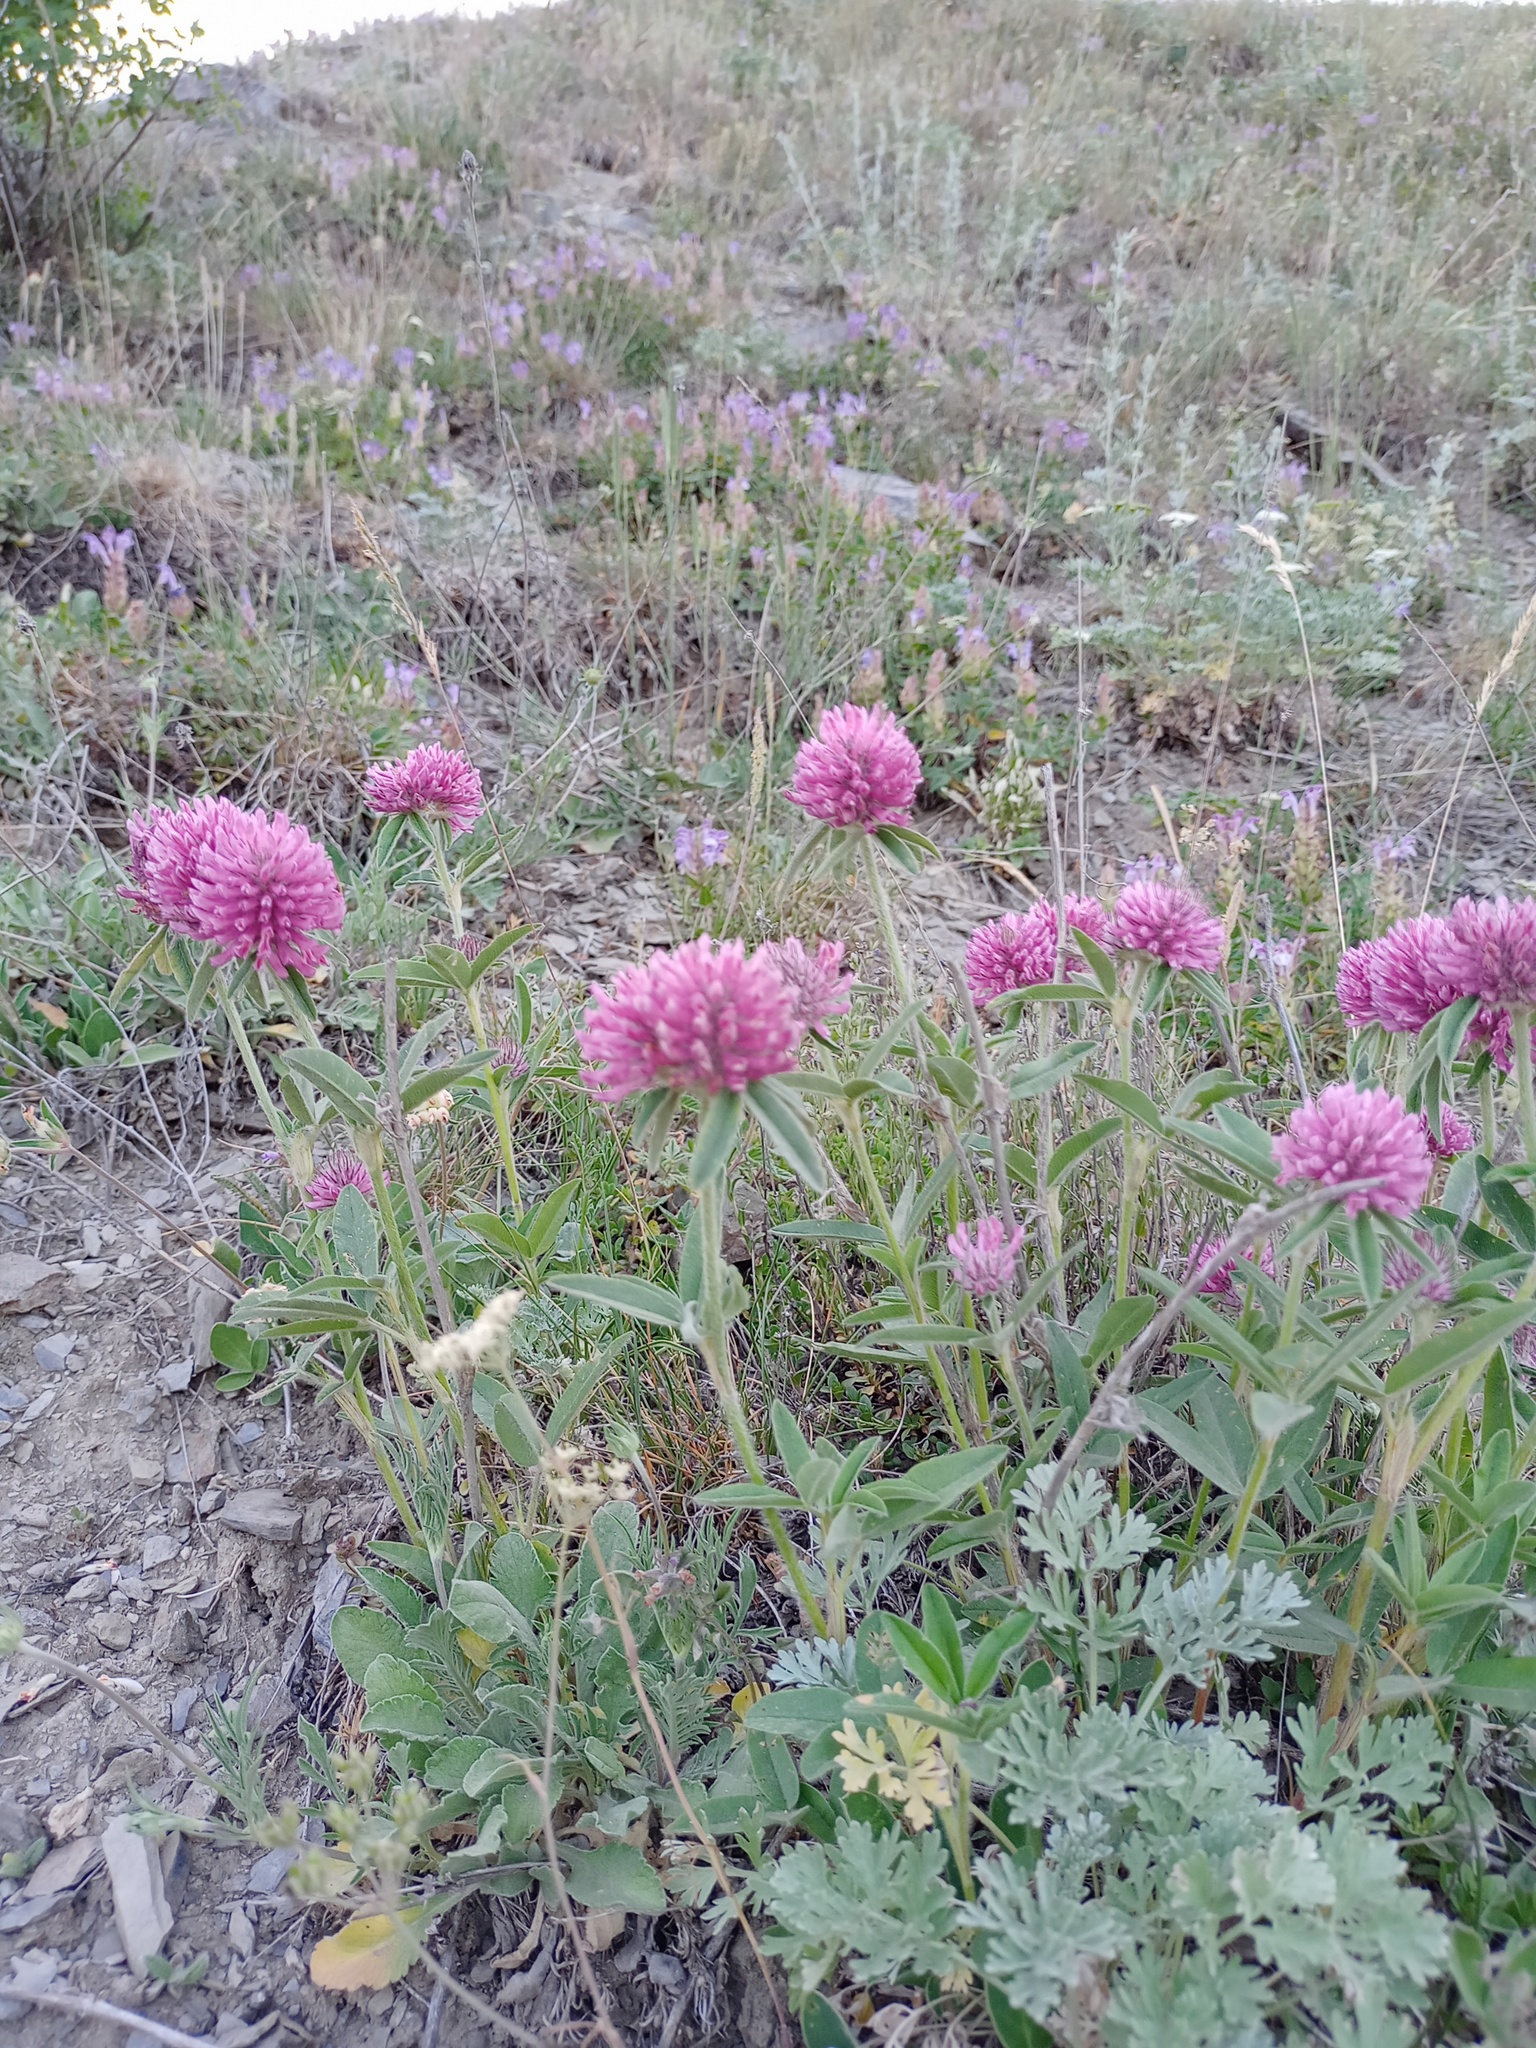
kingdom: Plantae
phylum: Tracheophyta
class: Magnoliopsida
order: Fabales
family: Fabaceae
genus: Trifolium
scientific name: Trifolium alpestre
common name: Owl-head clover
